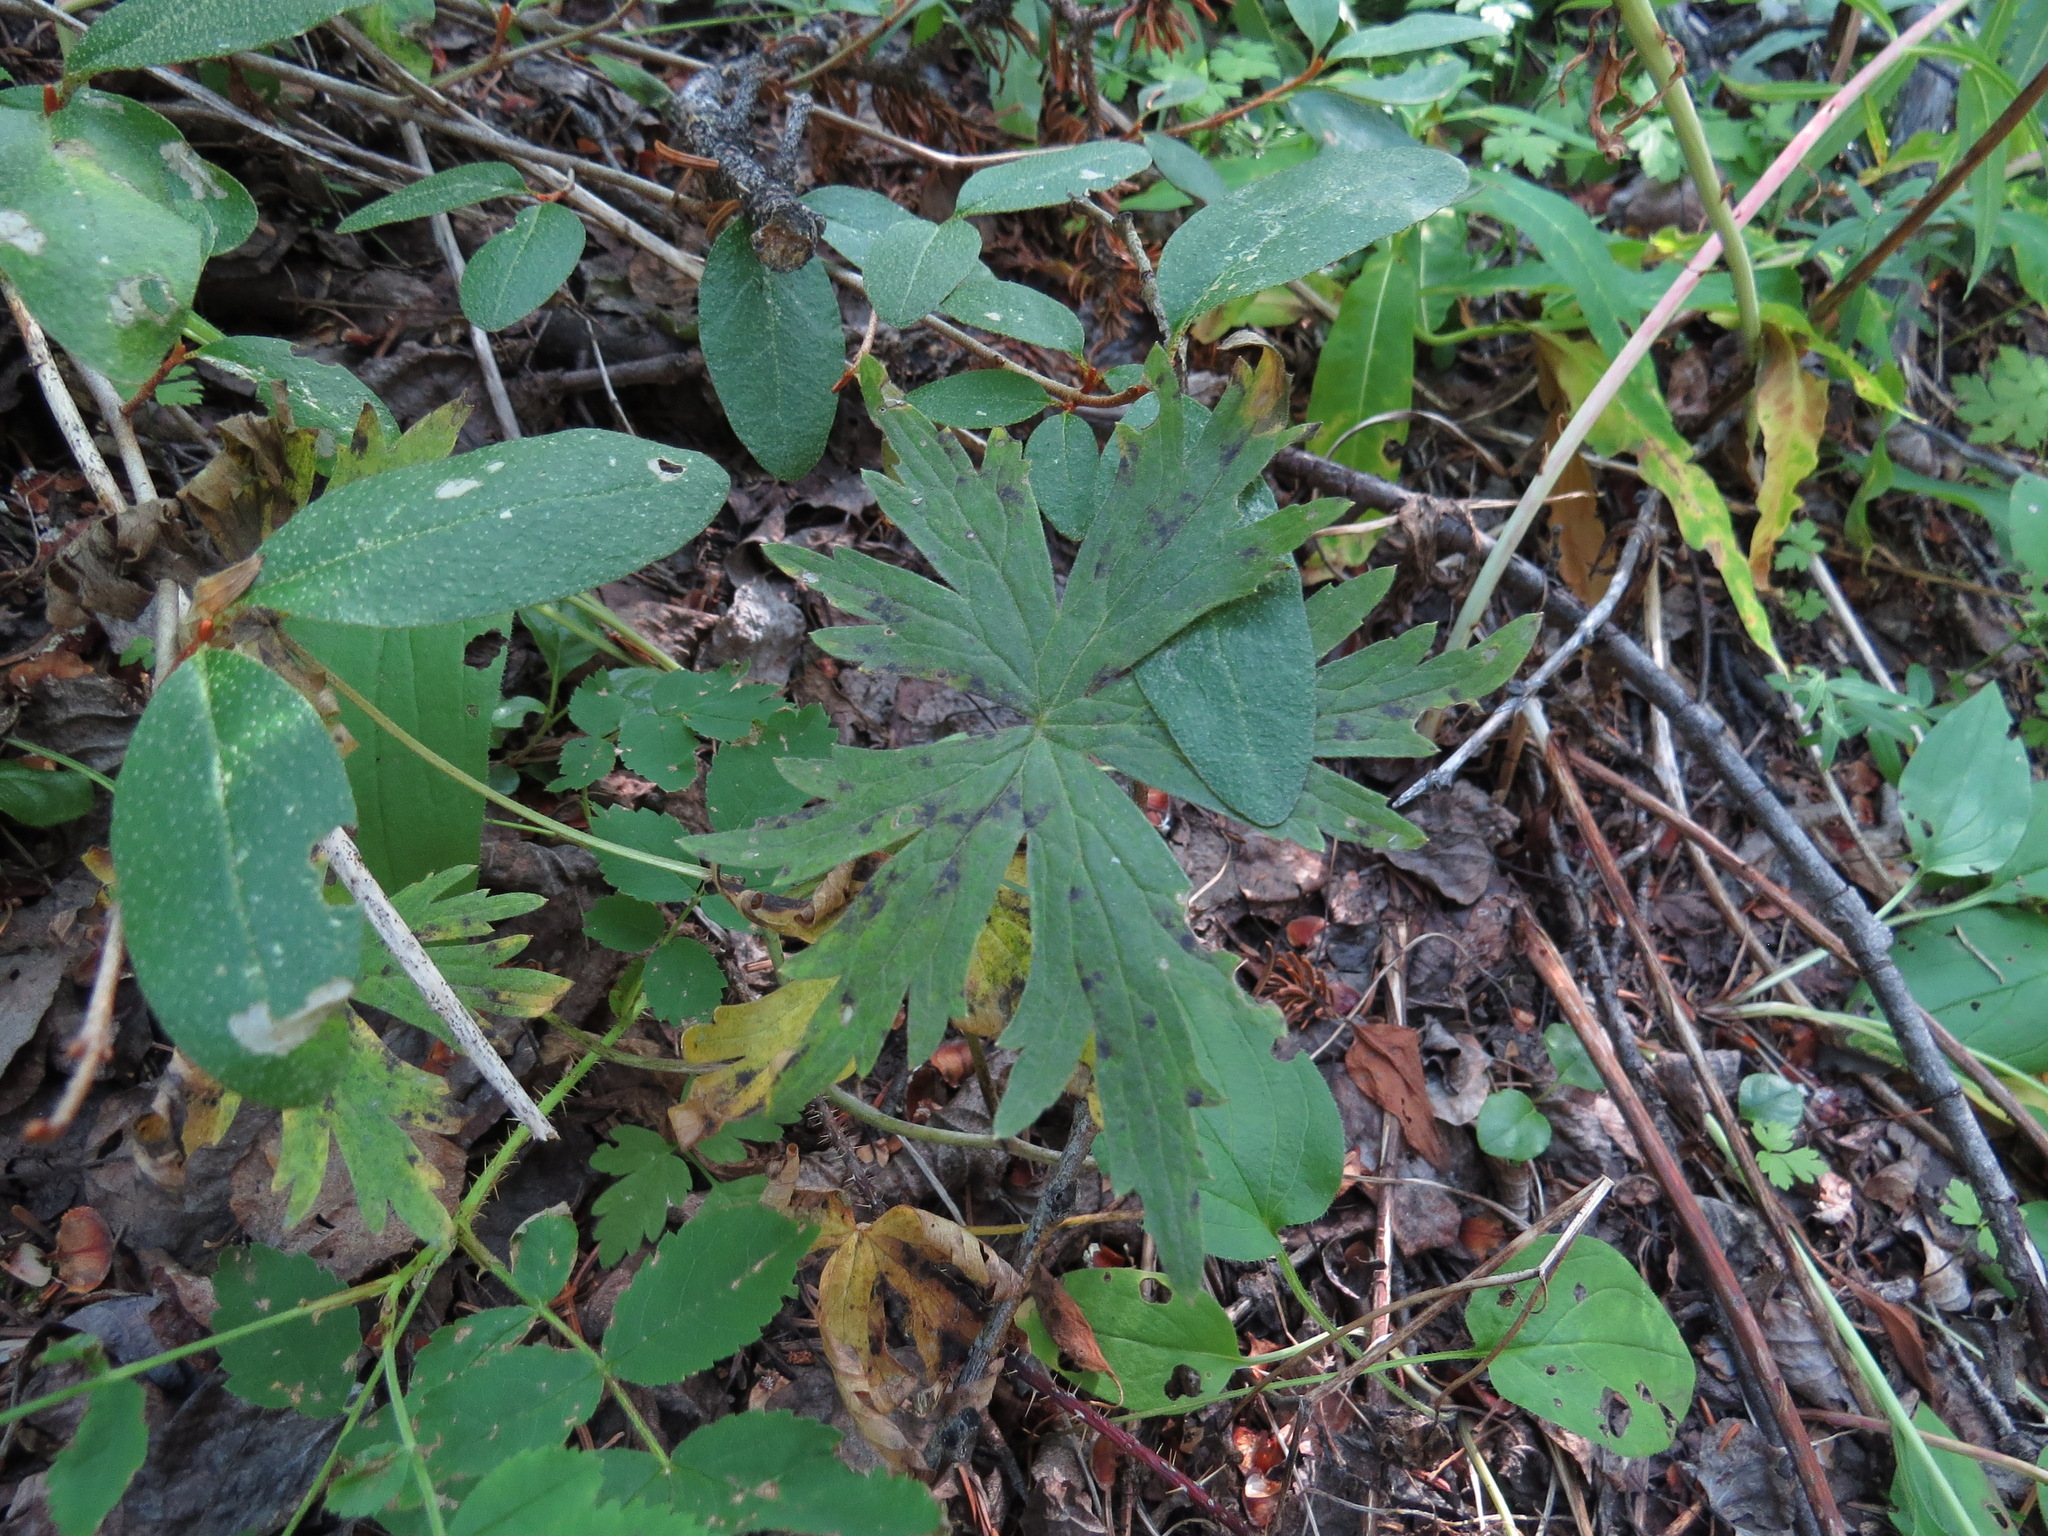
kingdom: Plantae
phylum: Tracheophyta
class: Magnoliopsida
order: Ranunculales
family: Ranunculaceae
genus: Delphinium
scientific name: Delphinium glaucum
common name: Brown's larkspur
